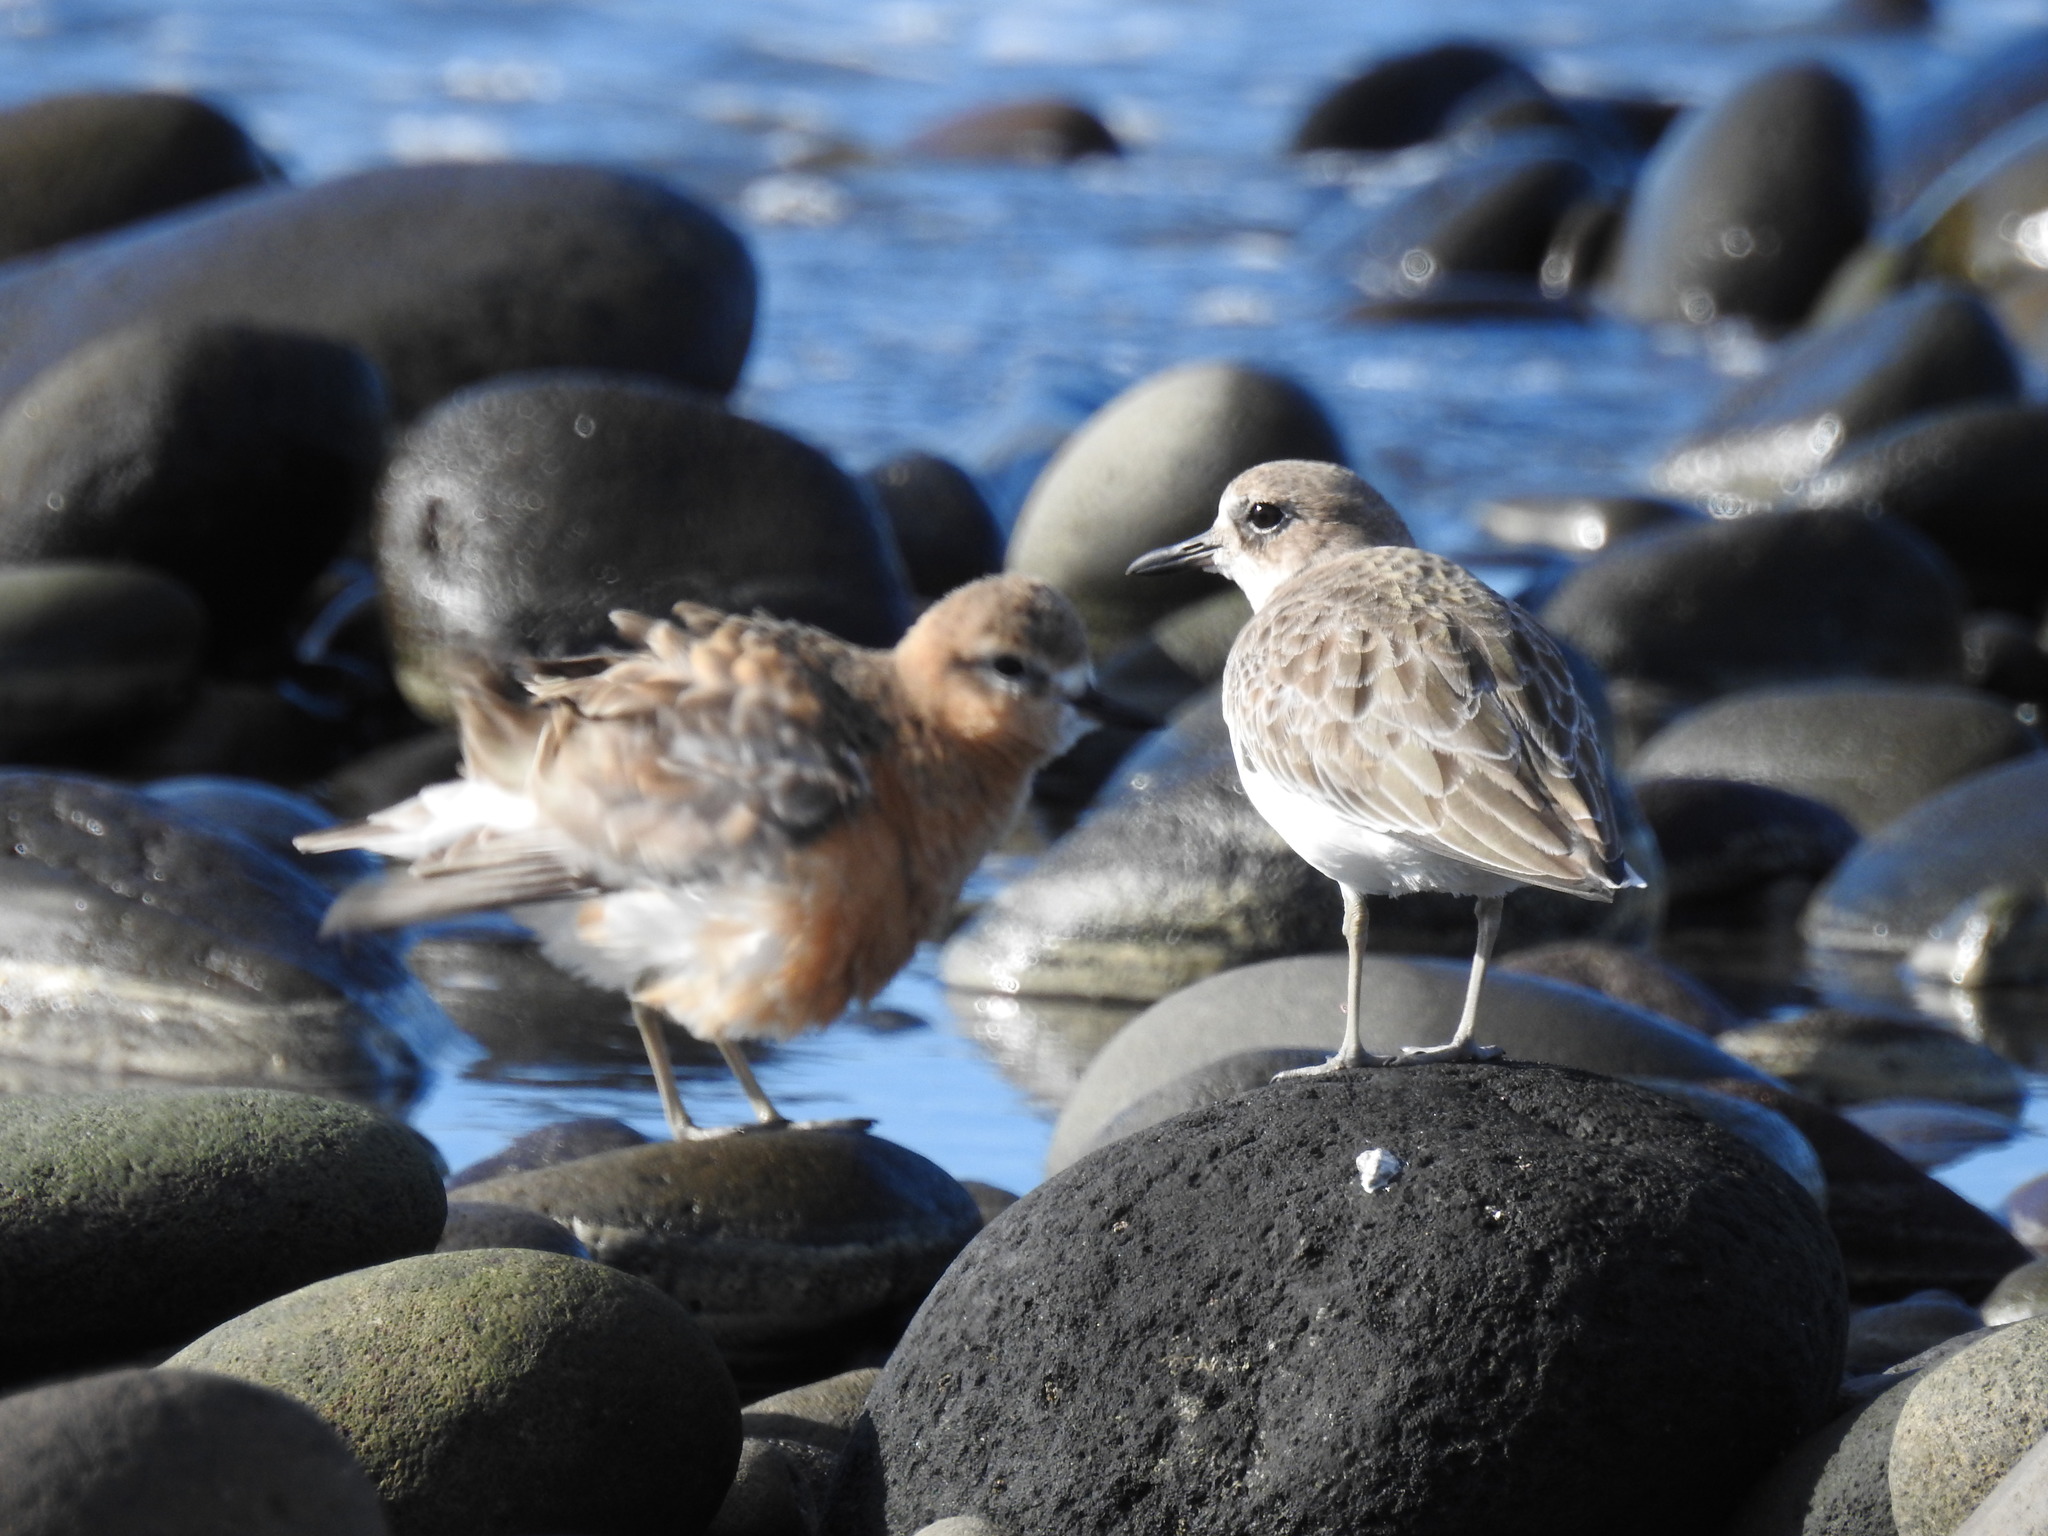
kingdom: Animalia
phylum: Chordata
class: Aves
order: Charadriiformes
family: Charadriidae
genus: Anarhynchus
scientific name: Anarhynchus
